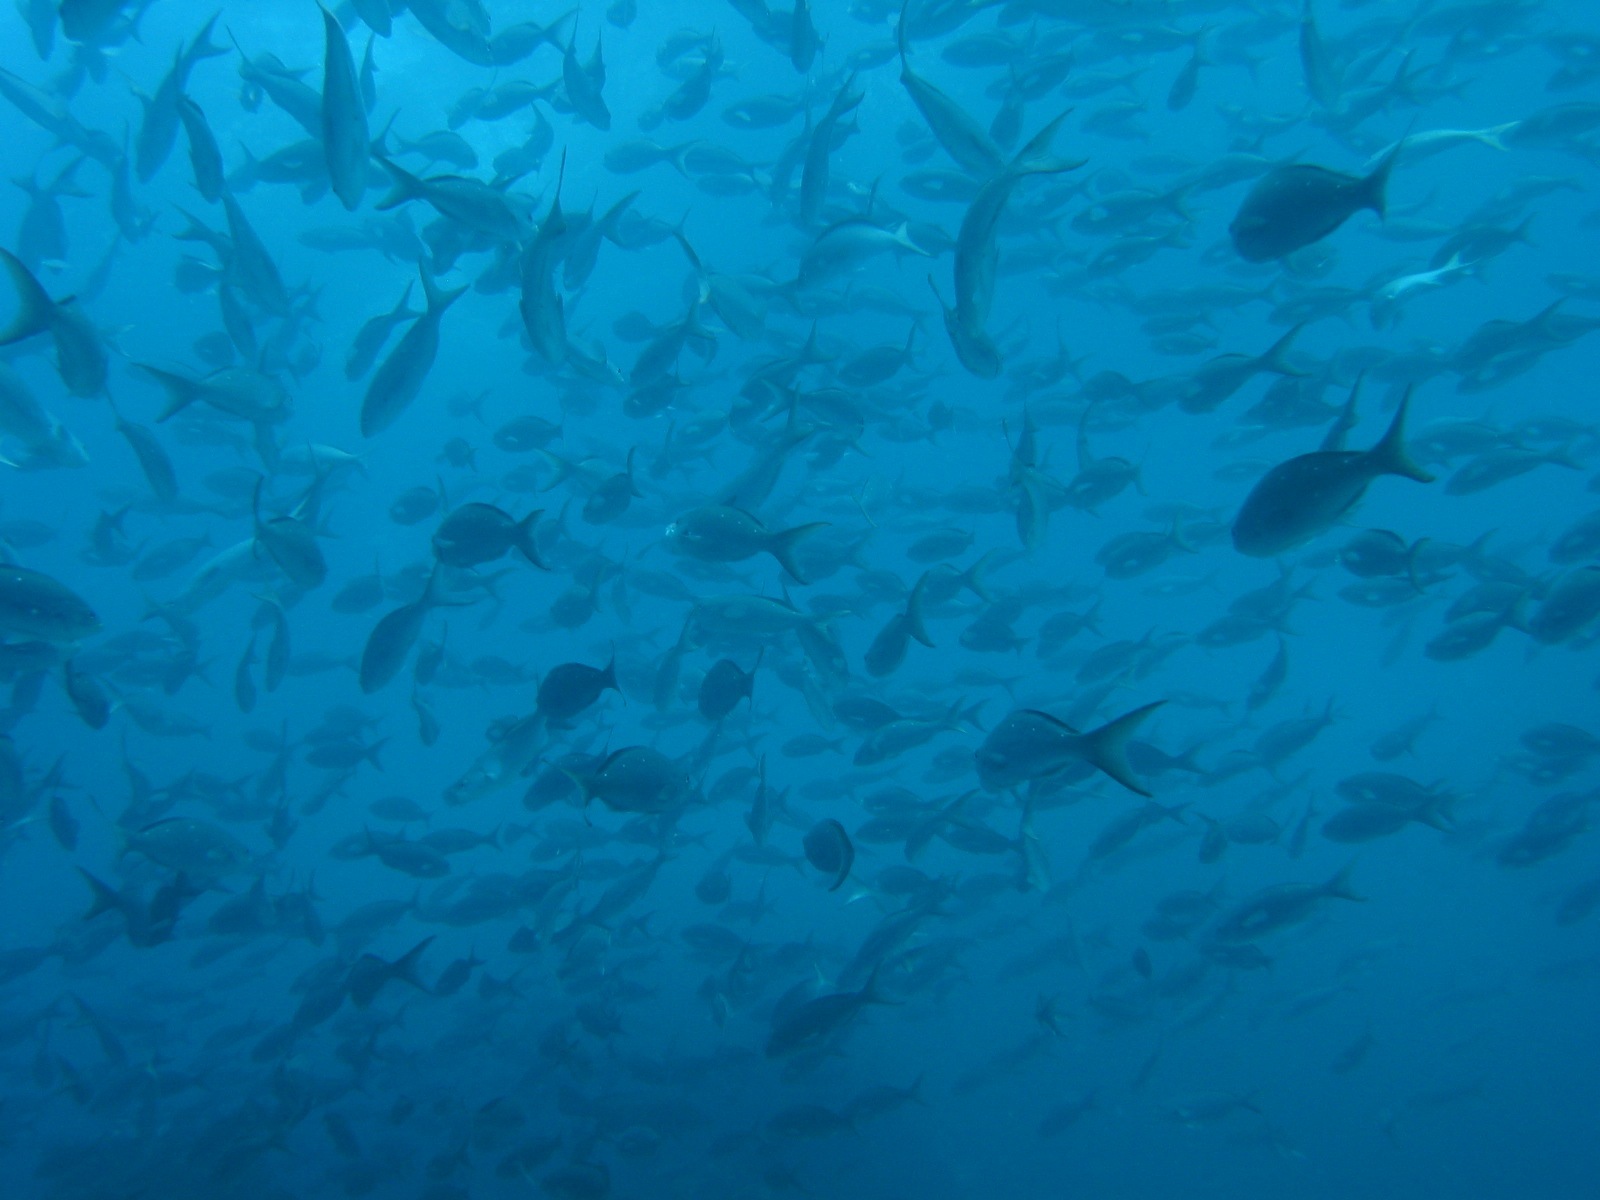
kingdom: Animalia
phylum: Chordata
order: Perciformes
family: Serranidae
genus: Paranthias
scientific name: Paranthias colonus
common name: Pacific creole-fish
